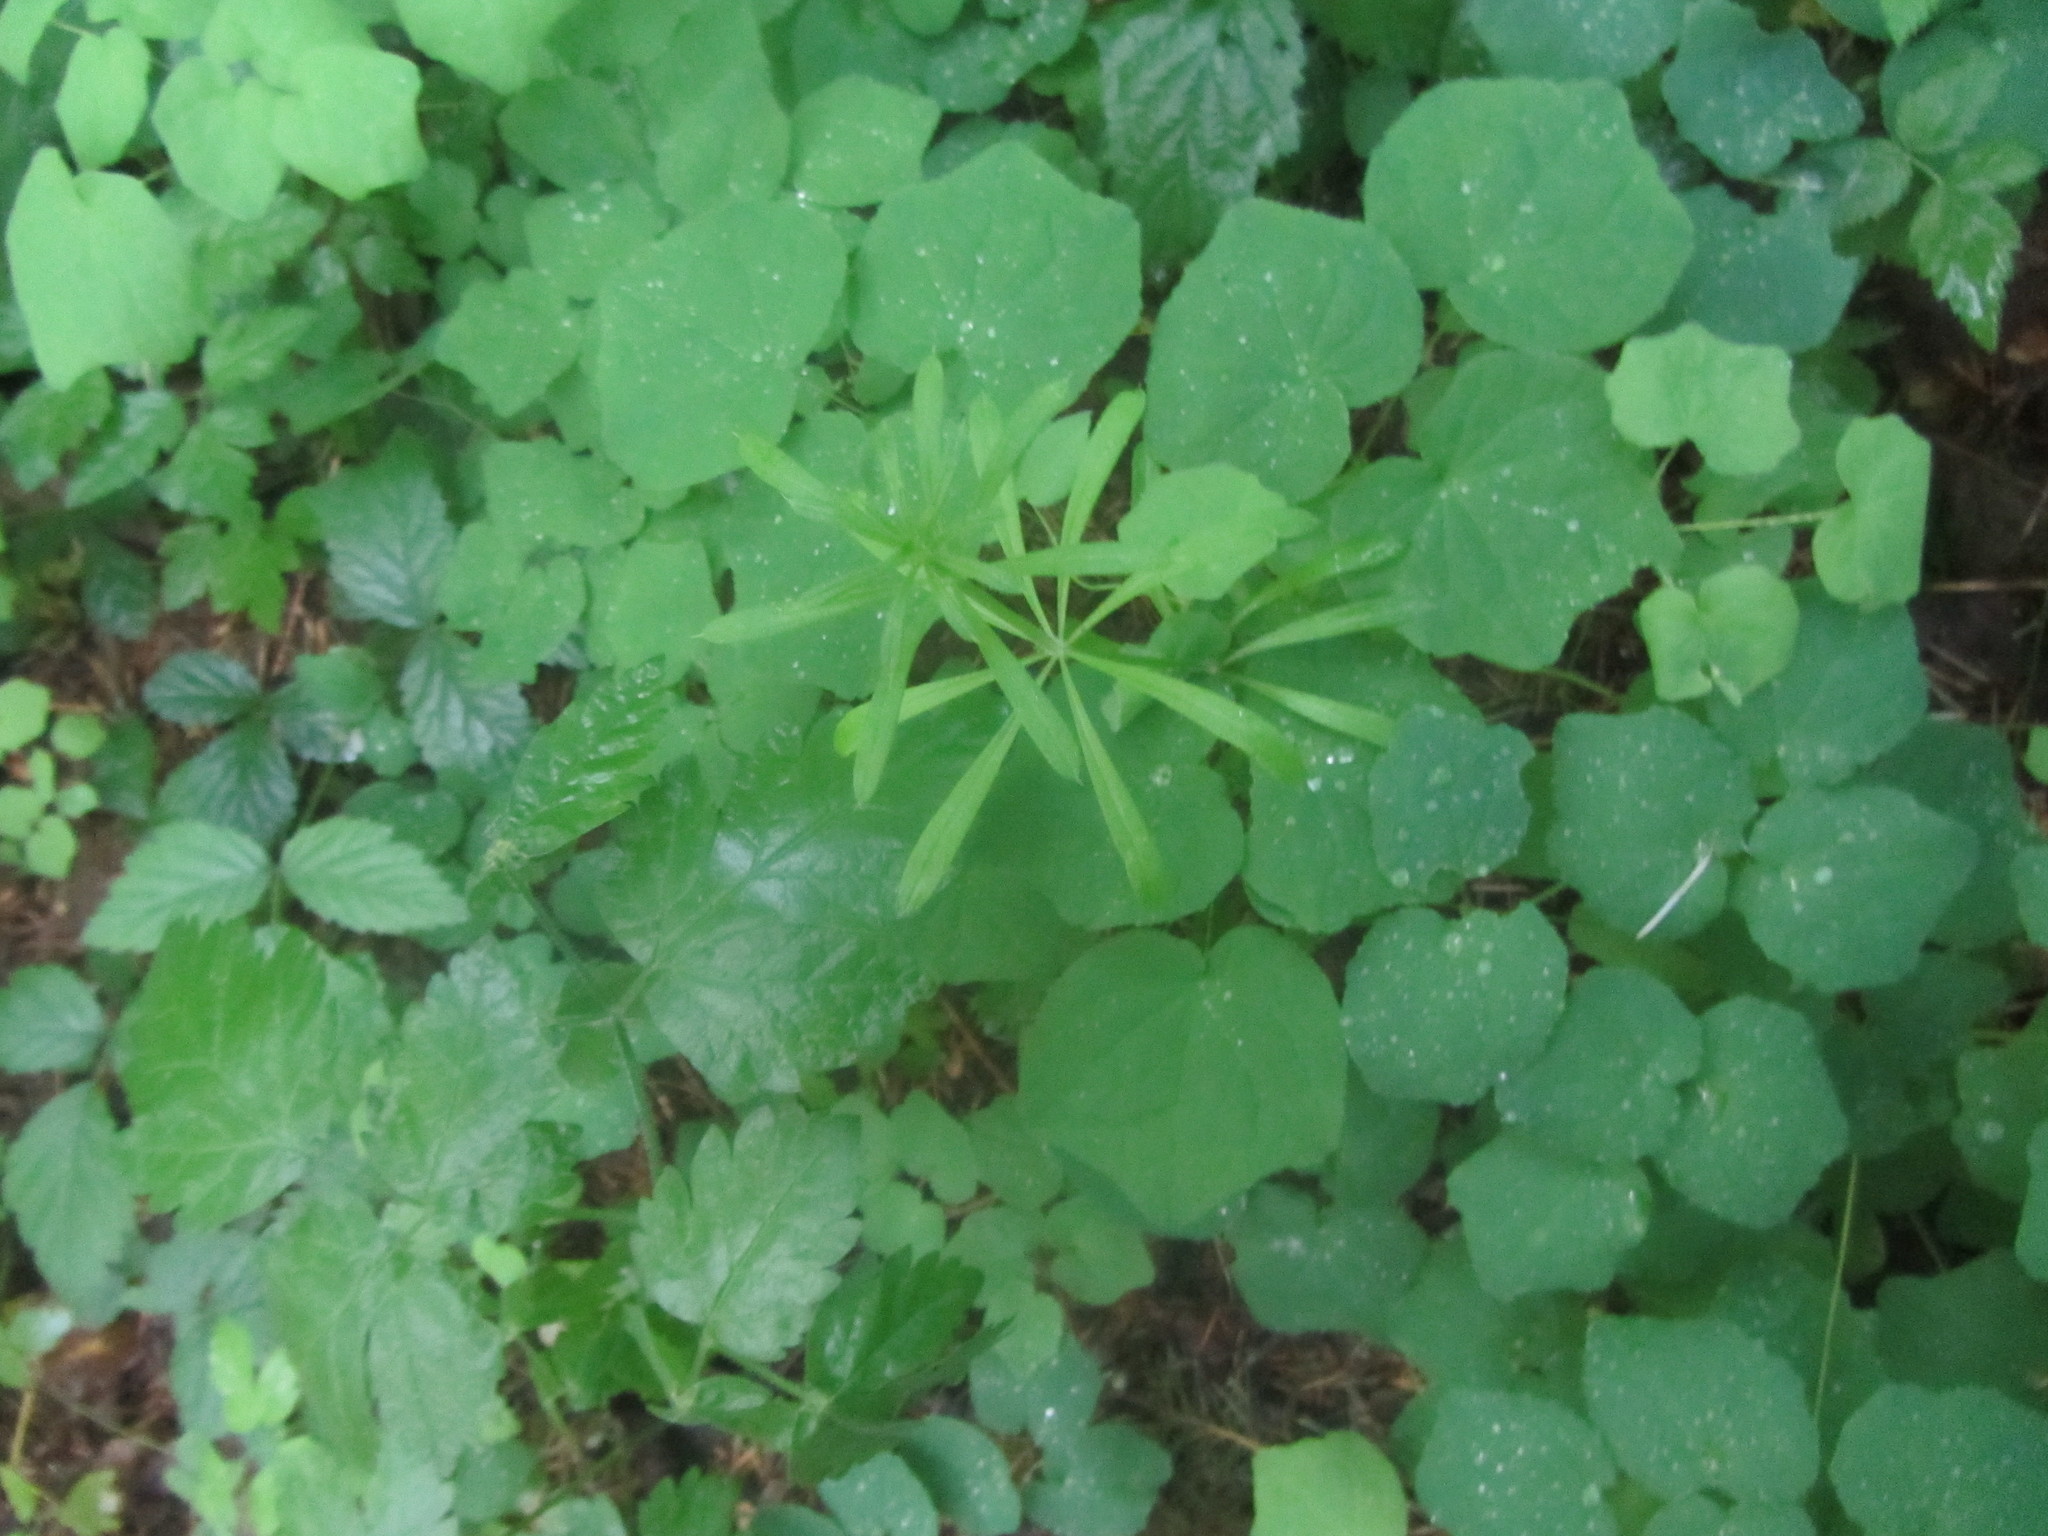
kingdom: Plantae
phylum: Tracheophyta
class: Magnoliopsida
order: Ranunculales
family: Berberidaceae
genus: Vancouveria
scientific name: Vancouveria hexandra
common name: Northern inside-out-flower
